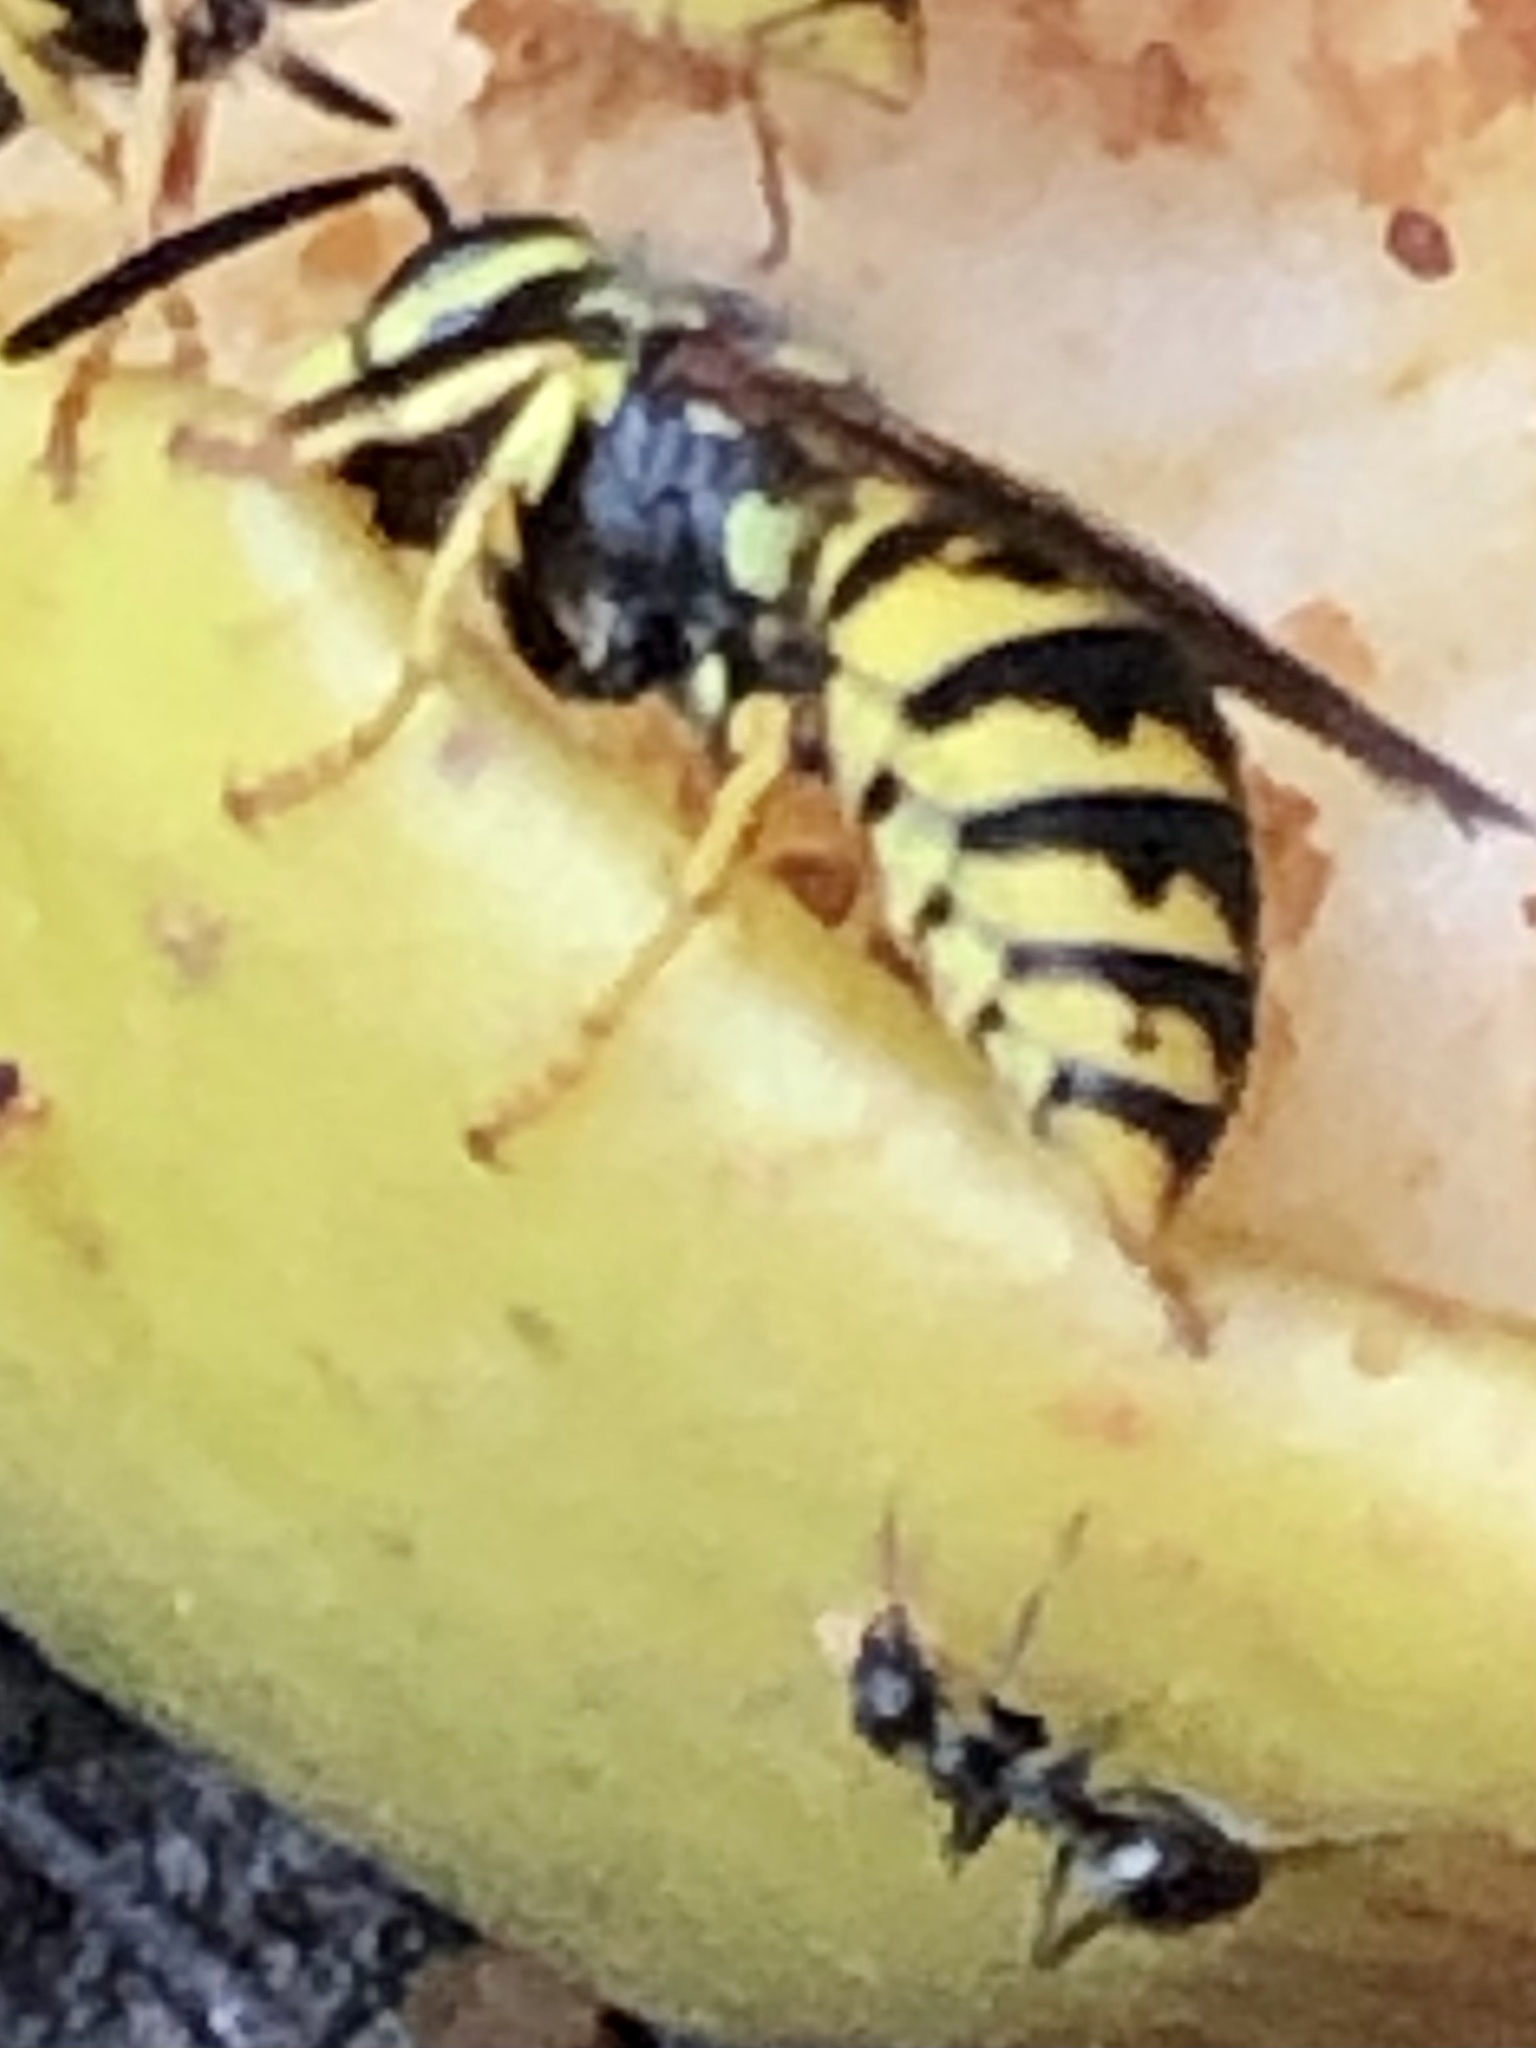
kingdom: Animalia
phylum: Arthropoda
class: Insecta
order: Hymenoptera
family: Vespidae
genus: Vespula
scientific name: Vespula germanica
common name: German wasp
